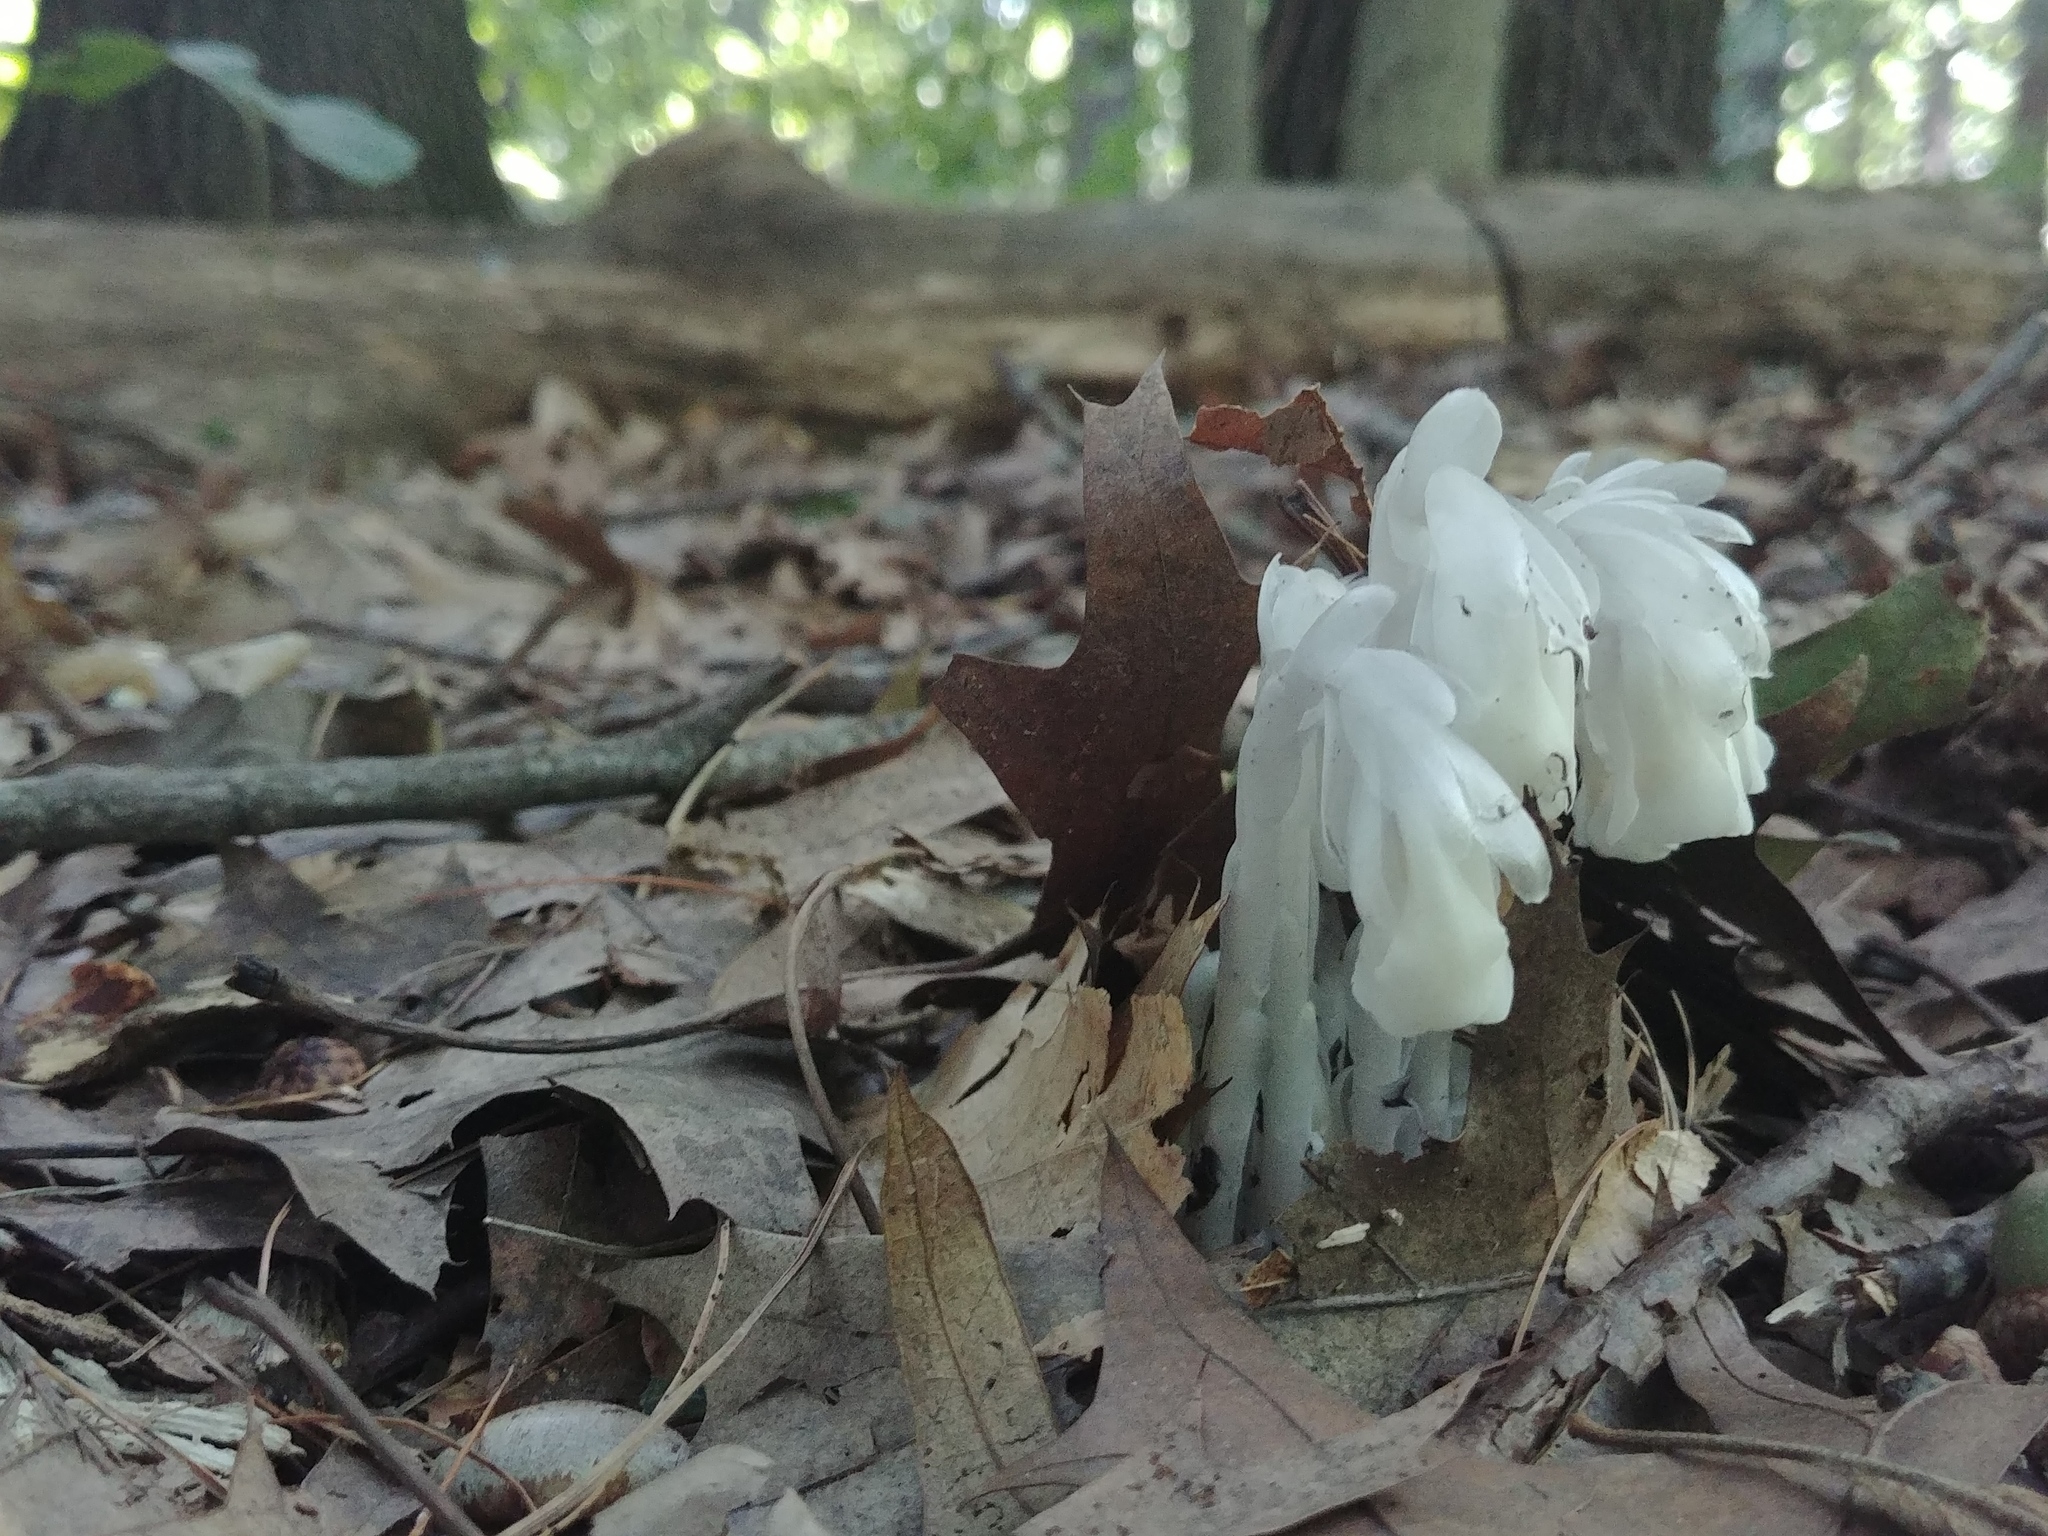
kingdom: Plantae
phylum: Tracheophyta
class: Magnoliopsida
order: Ericales
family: Ericaceae
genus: Monotropa
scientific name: Monotropa uniflora
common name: Convulsion root
